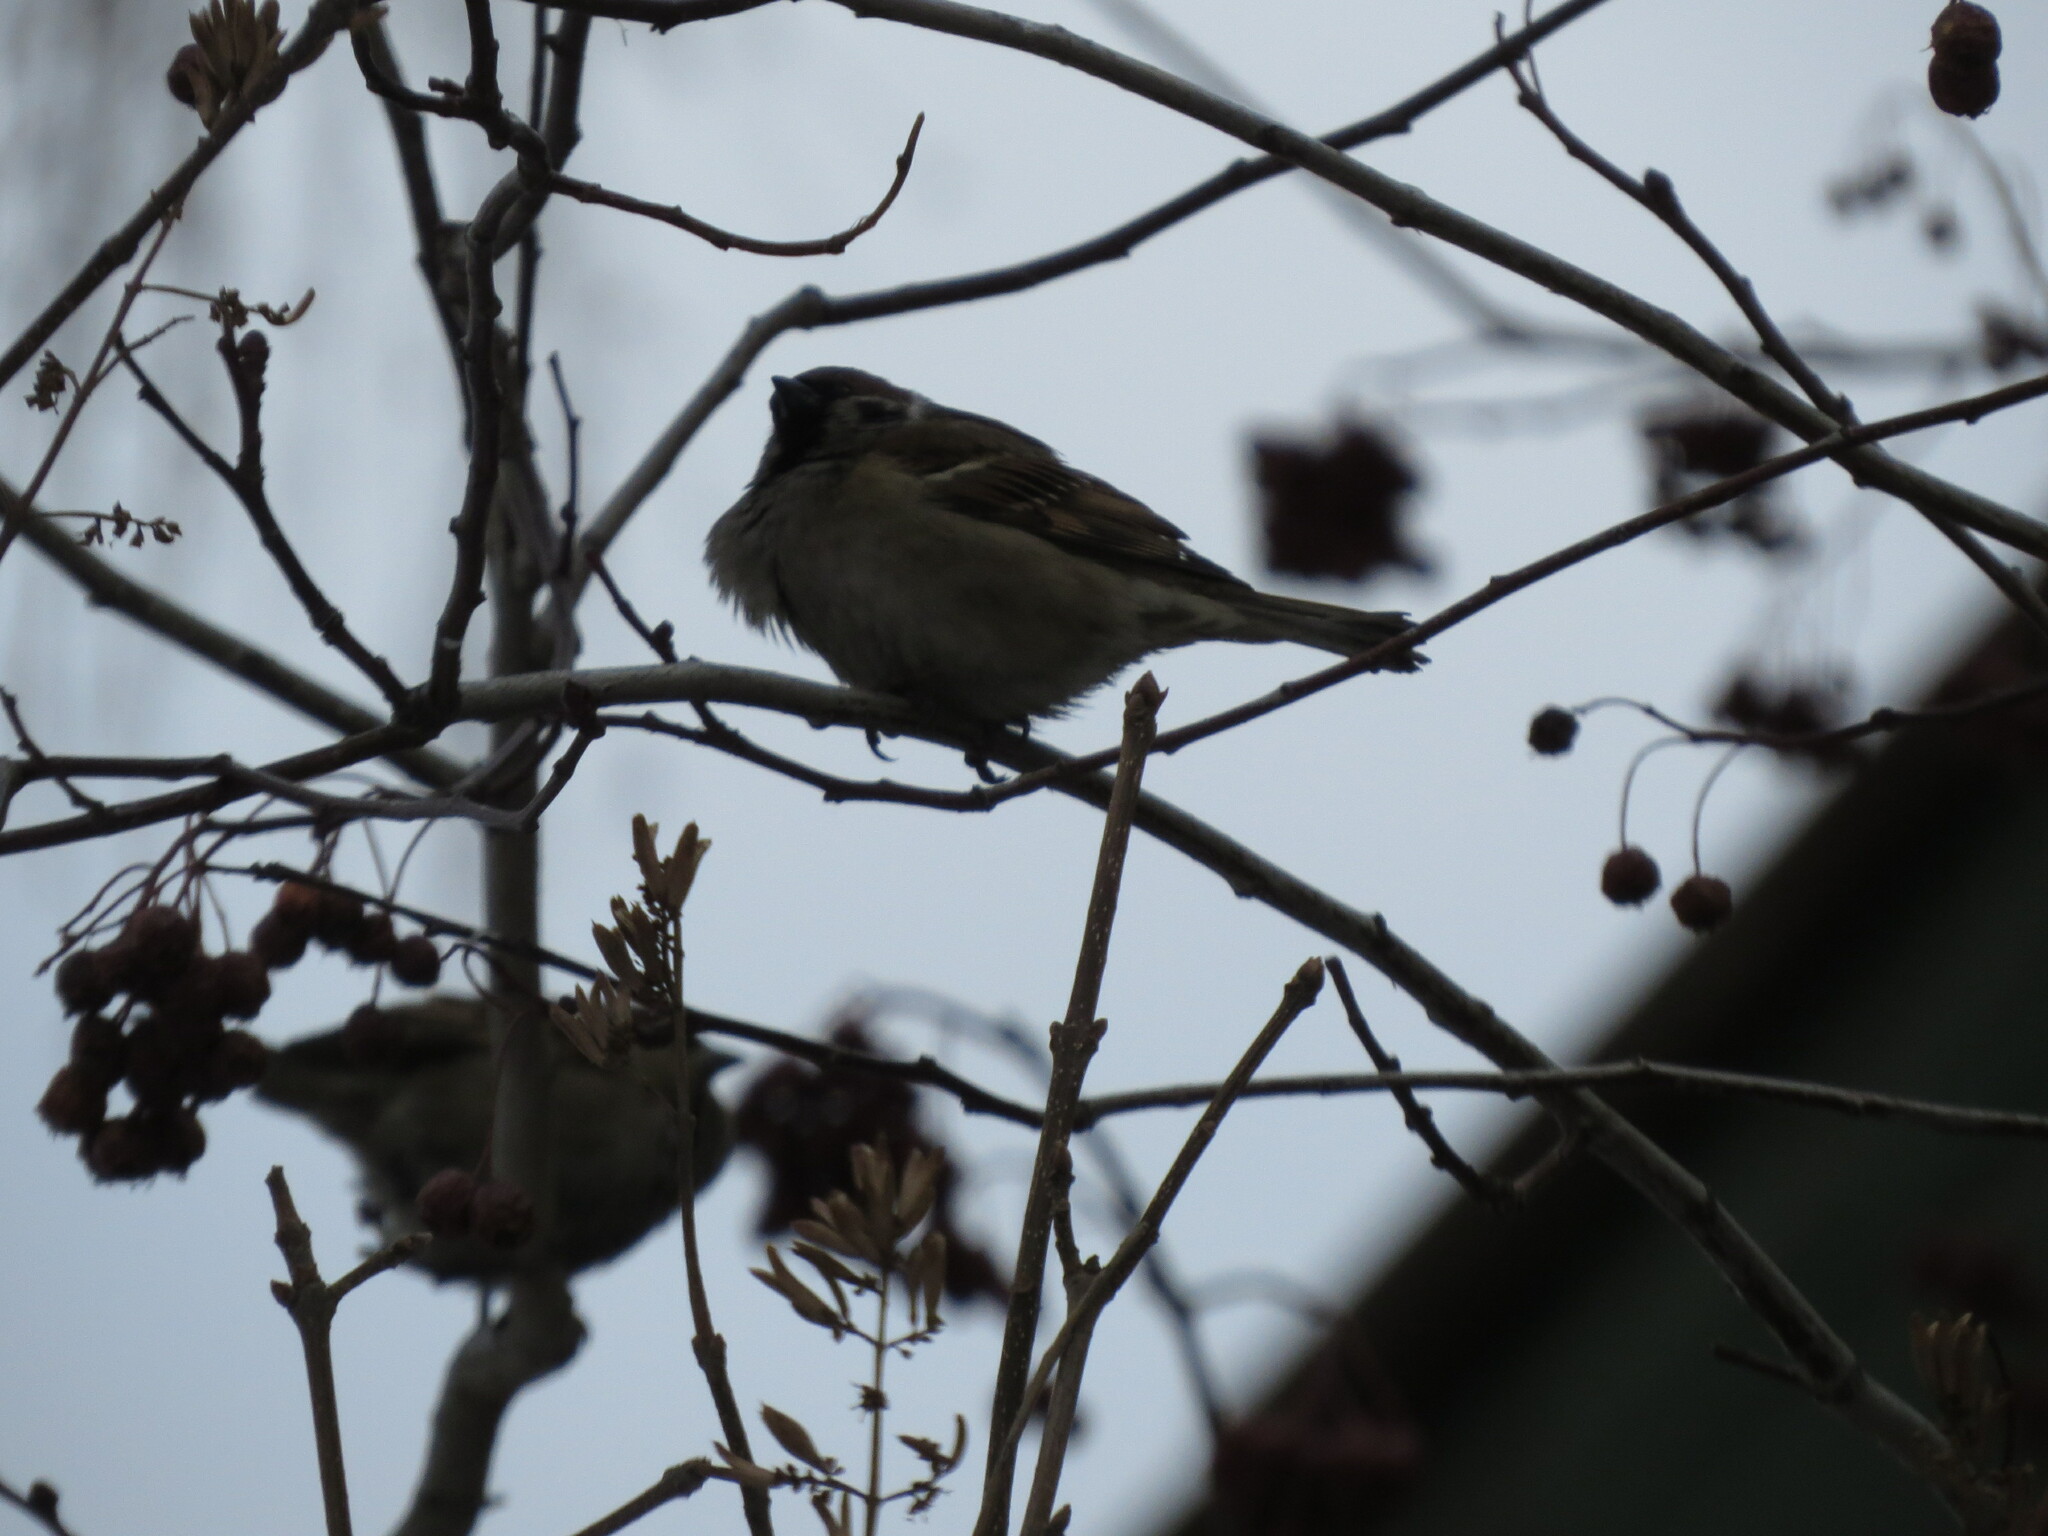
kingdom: Animalia
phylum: Chordata
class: Aves
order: Passeriformes
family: Passeridae
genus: Passer
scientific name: Passer montanus
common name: Eurasian tree sparrow
